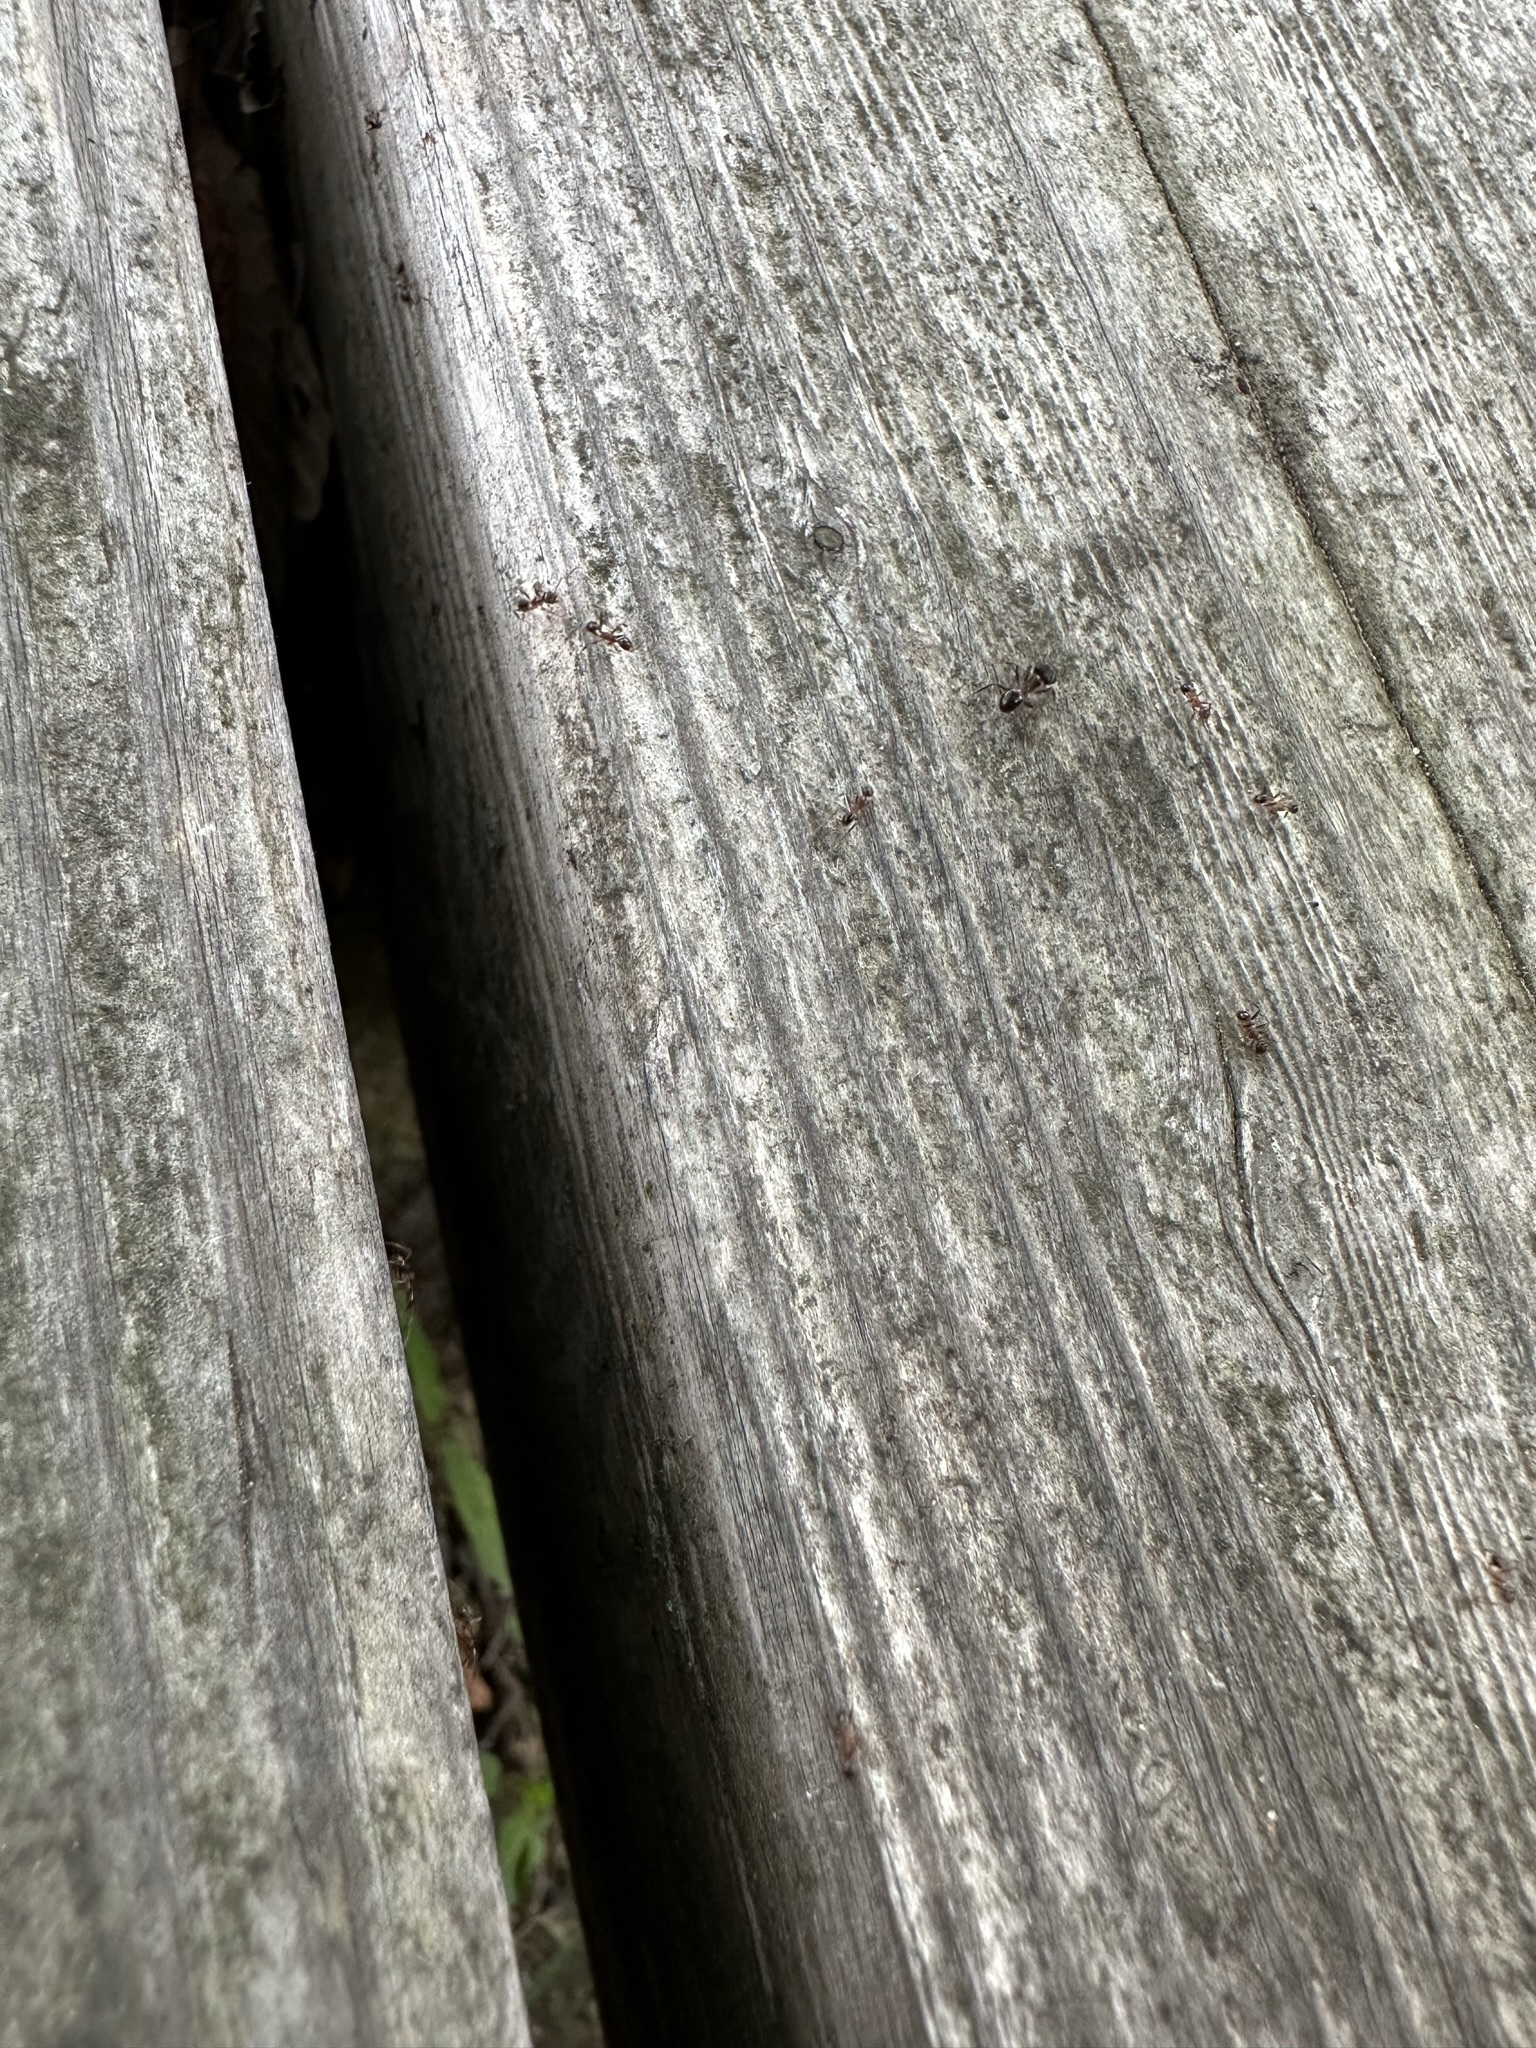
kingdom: Animalia
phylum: Arthropoda
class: Insecta
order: Hymenoptera
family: Formicidae
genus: Pheidole
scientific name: Pheidole noda
